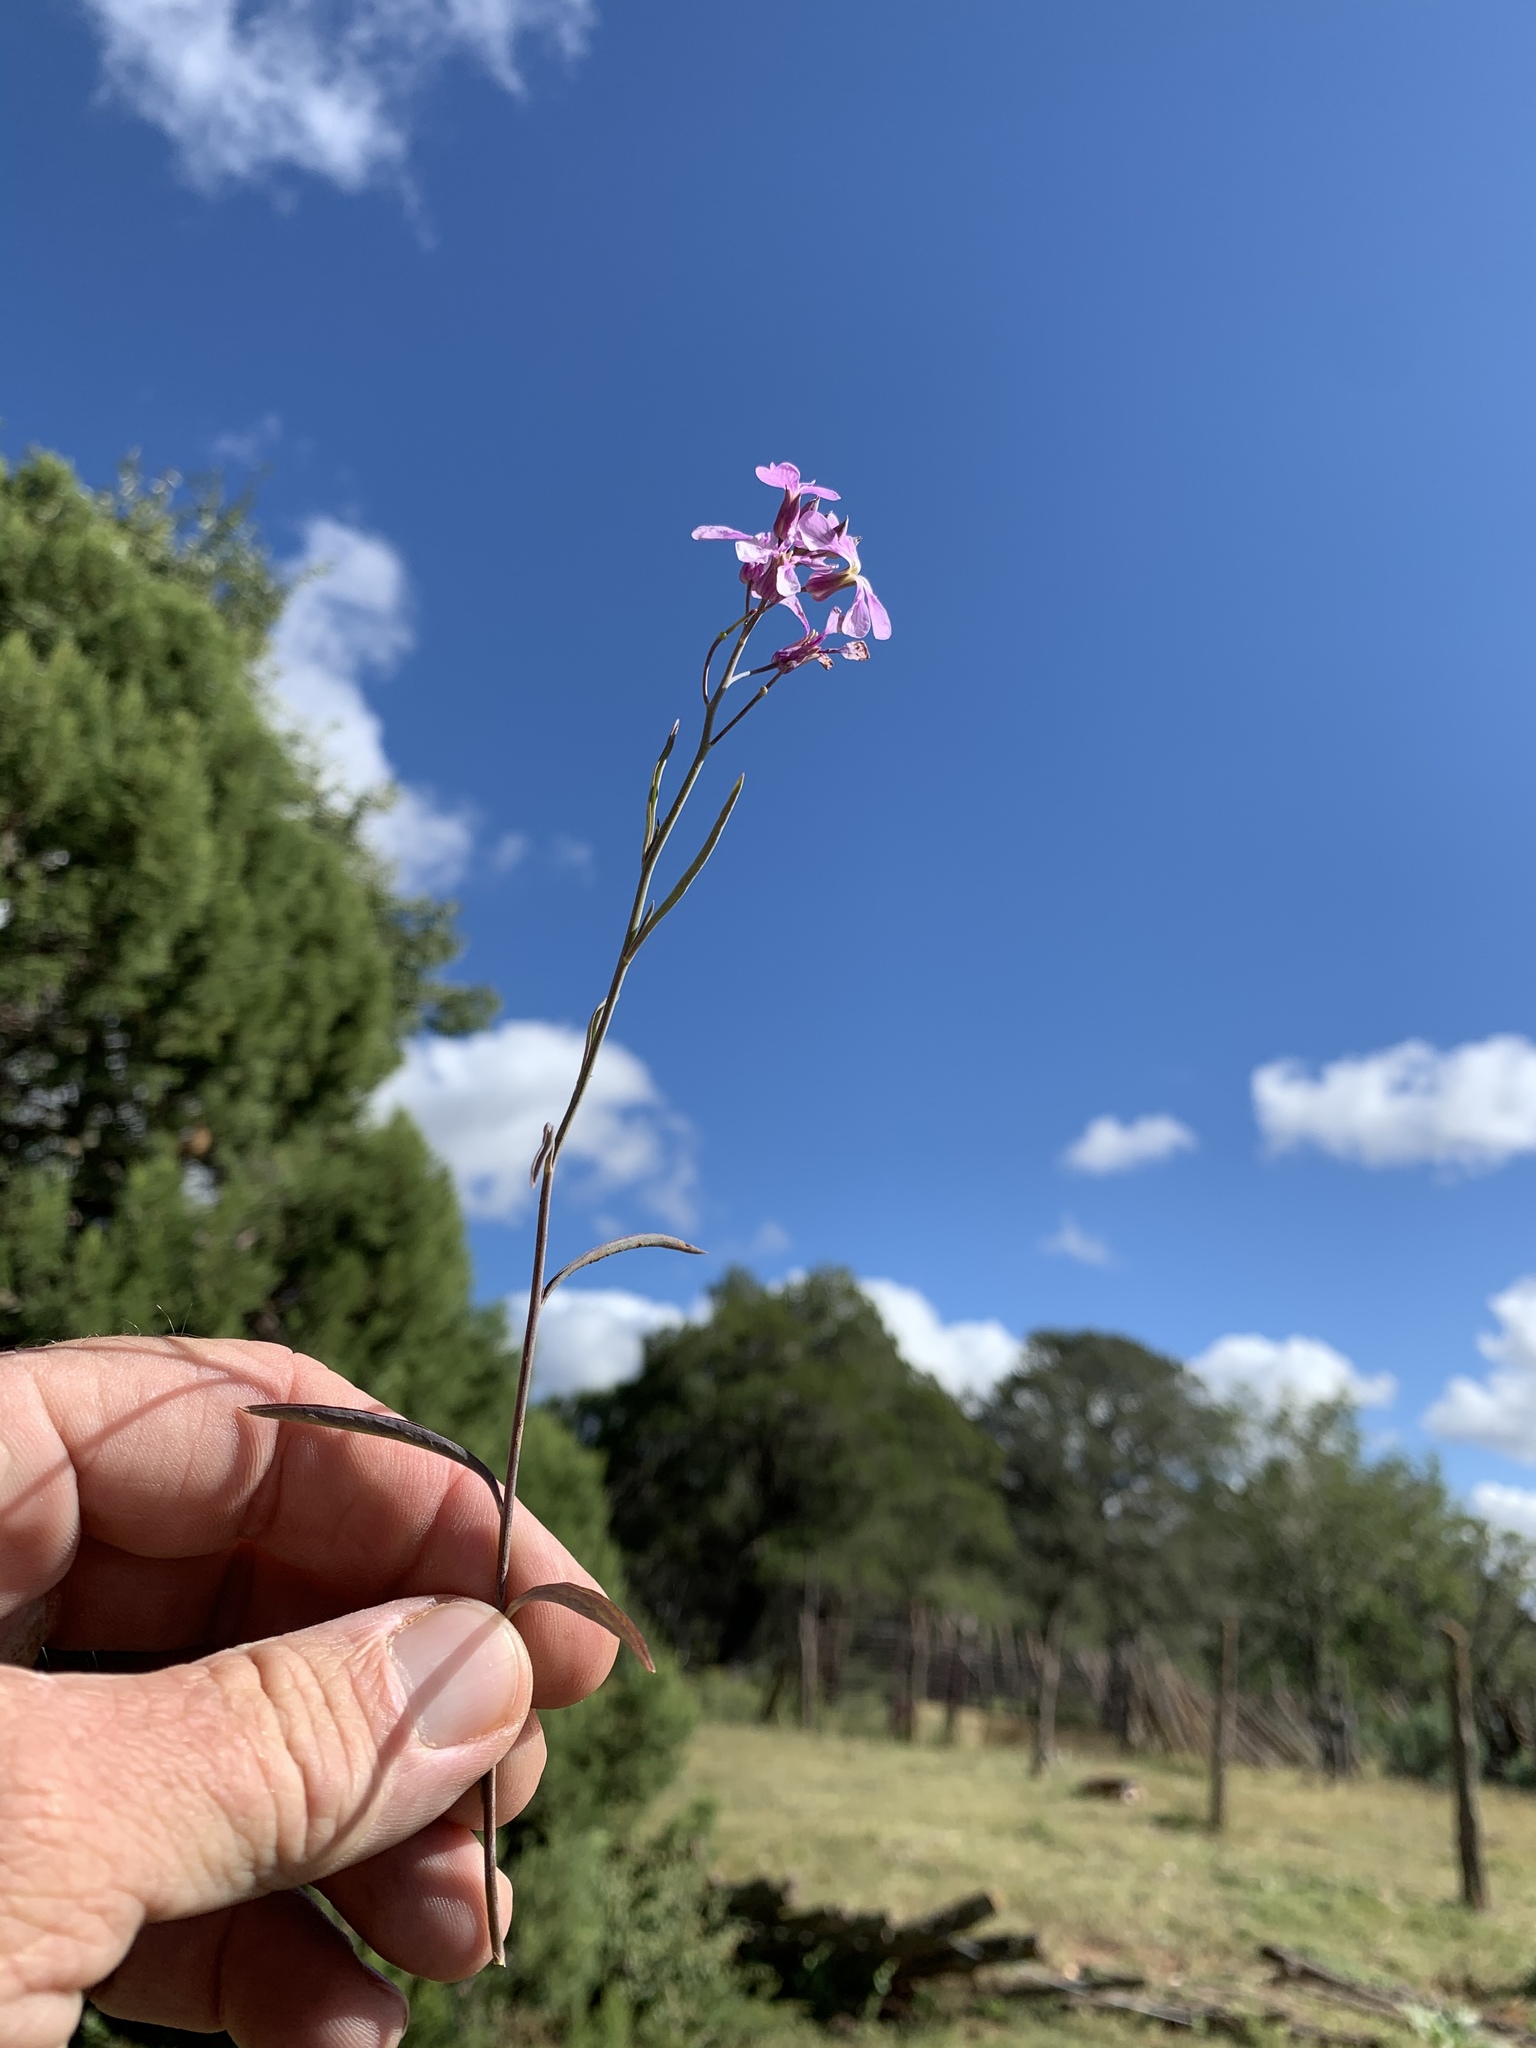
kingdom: Plantae
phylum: Tracheophyta
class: Magnoliopsida
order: Brassicales
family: Brassicaceae
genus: Hesperidanthus
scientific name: Hesperidanthus linearifolius
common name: Slim-leaf plains mustard
